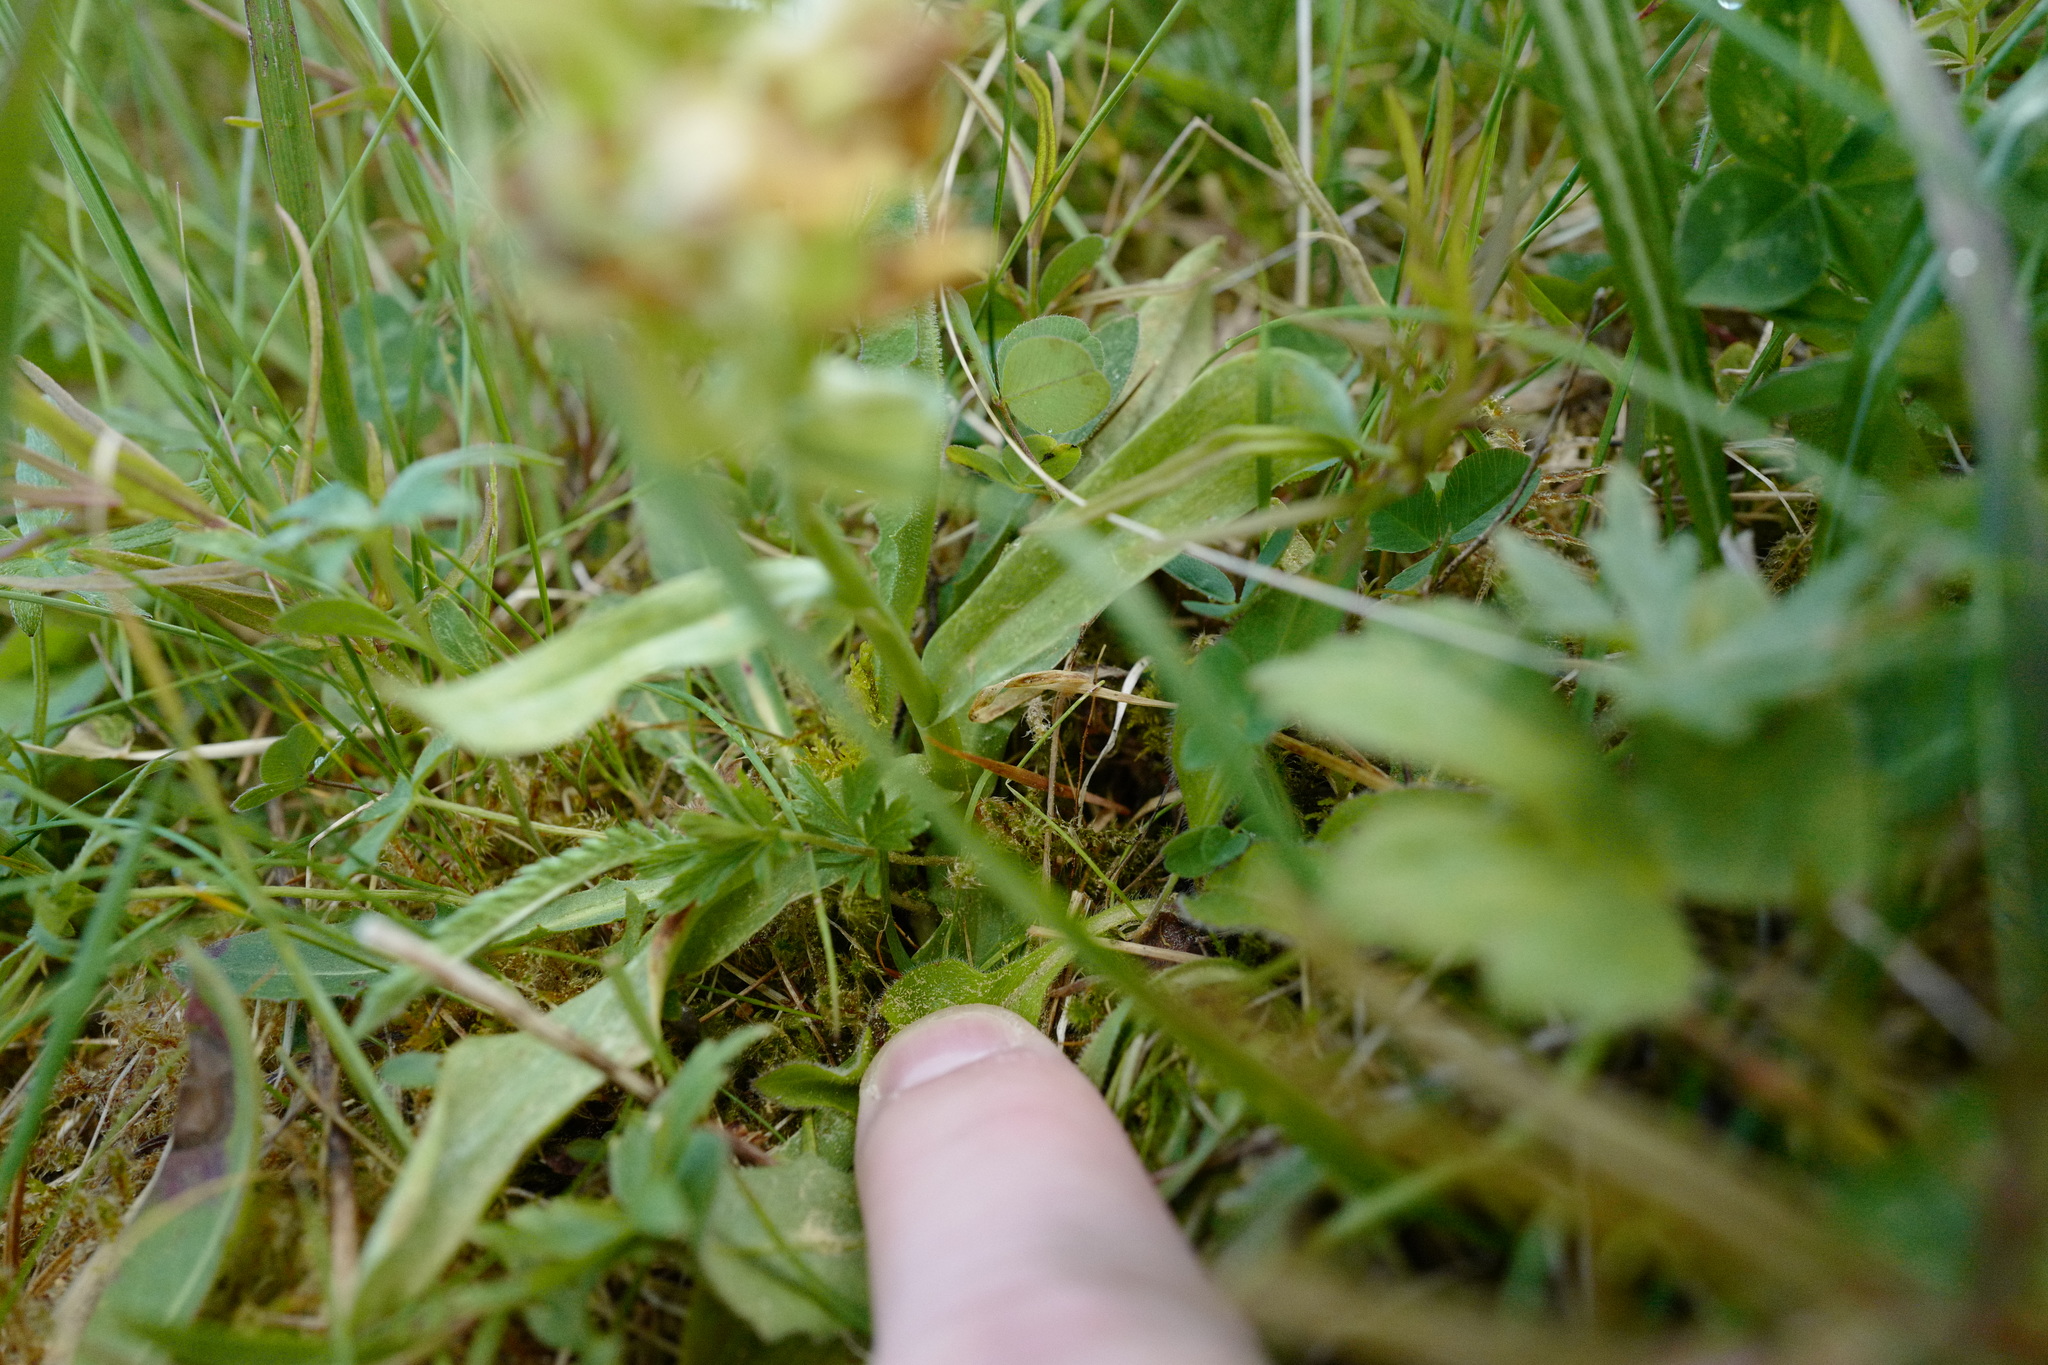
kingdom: Plantae
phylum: Tracheophyta
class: Liliopsida
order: Asparagales
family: Orchidaceae
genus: Dactylorhiza
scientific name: Dactylorhiza sambucina
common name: Elder-flowered orchid
